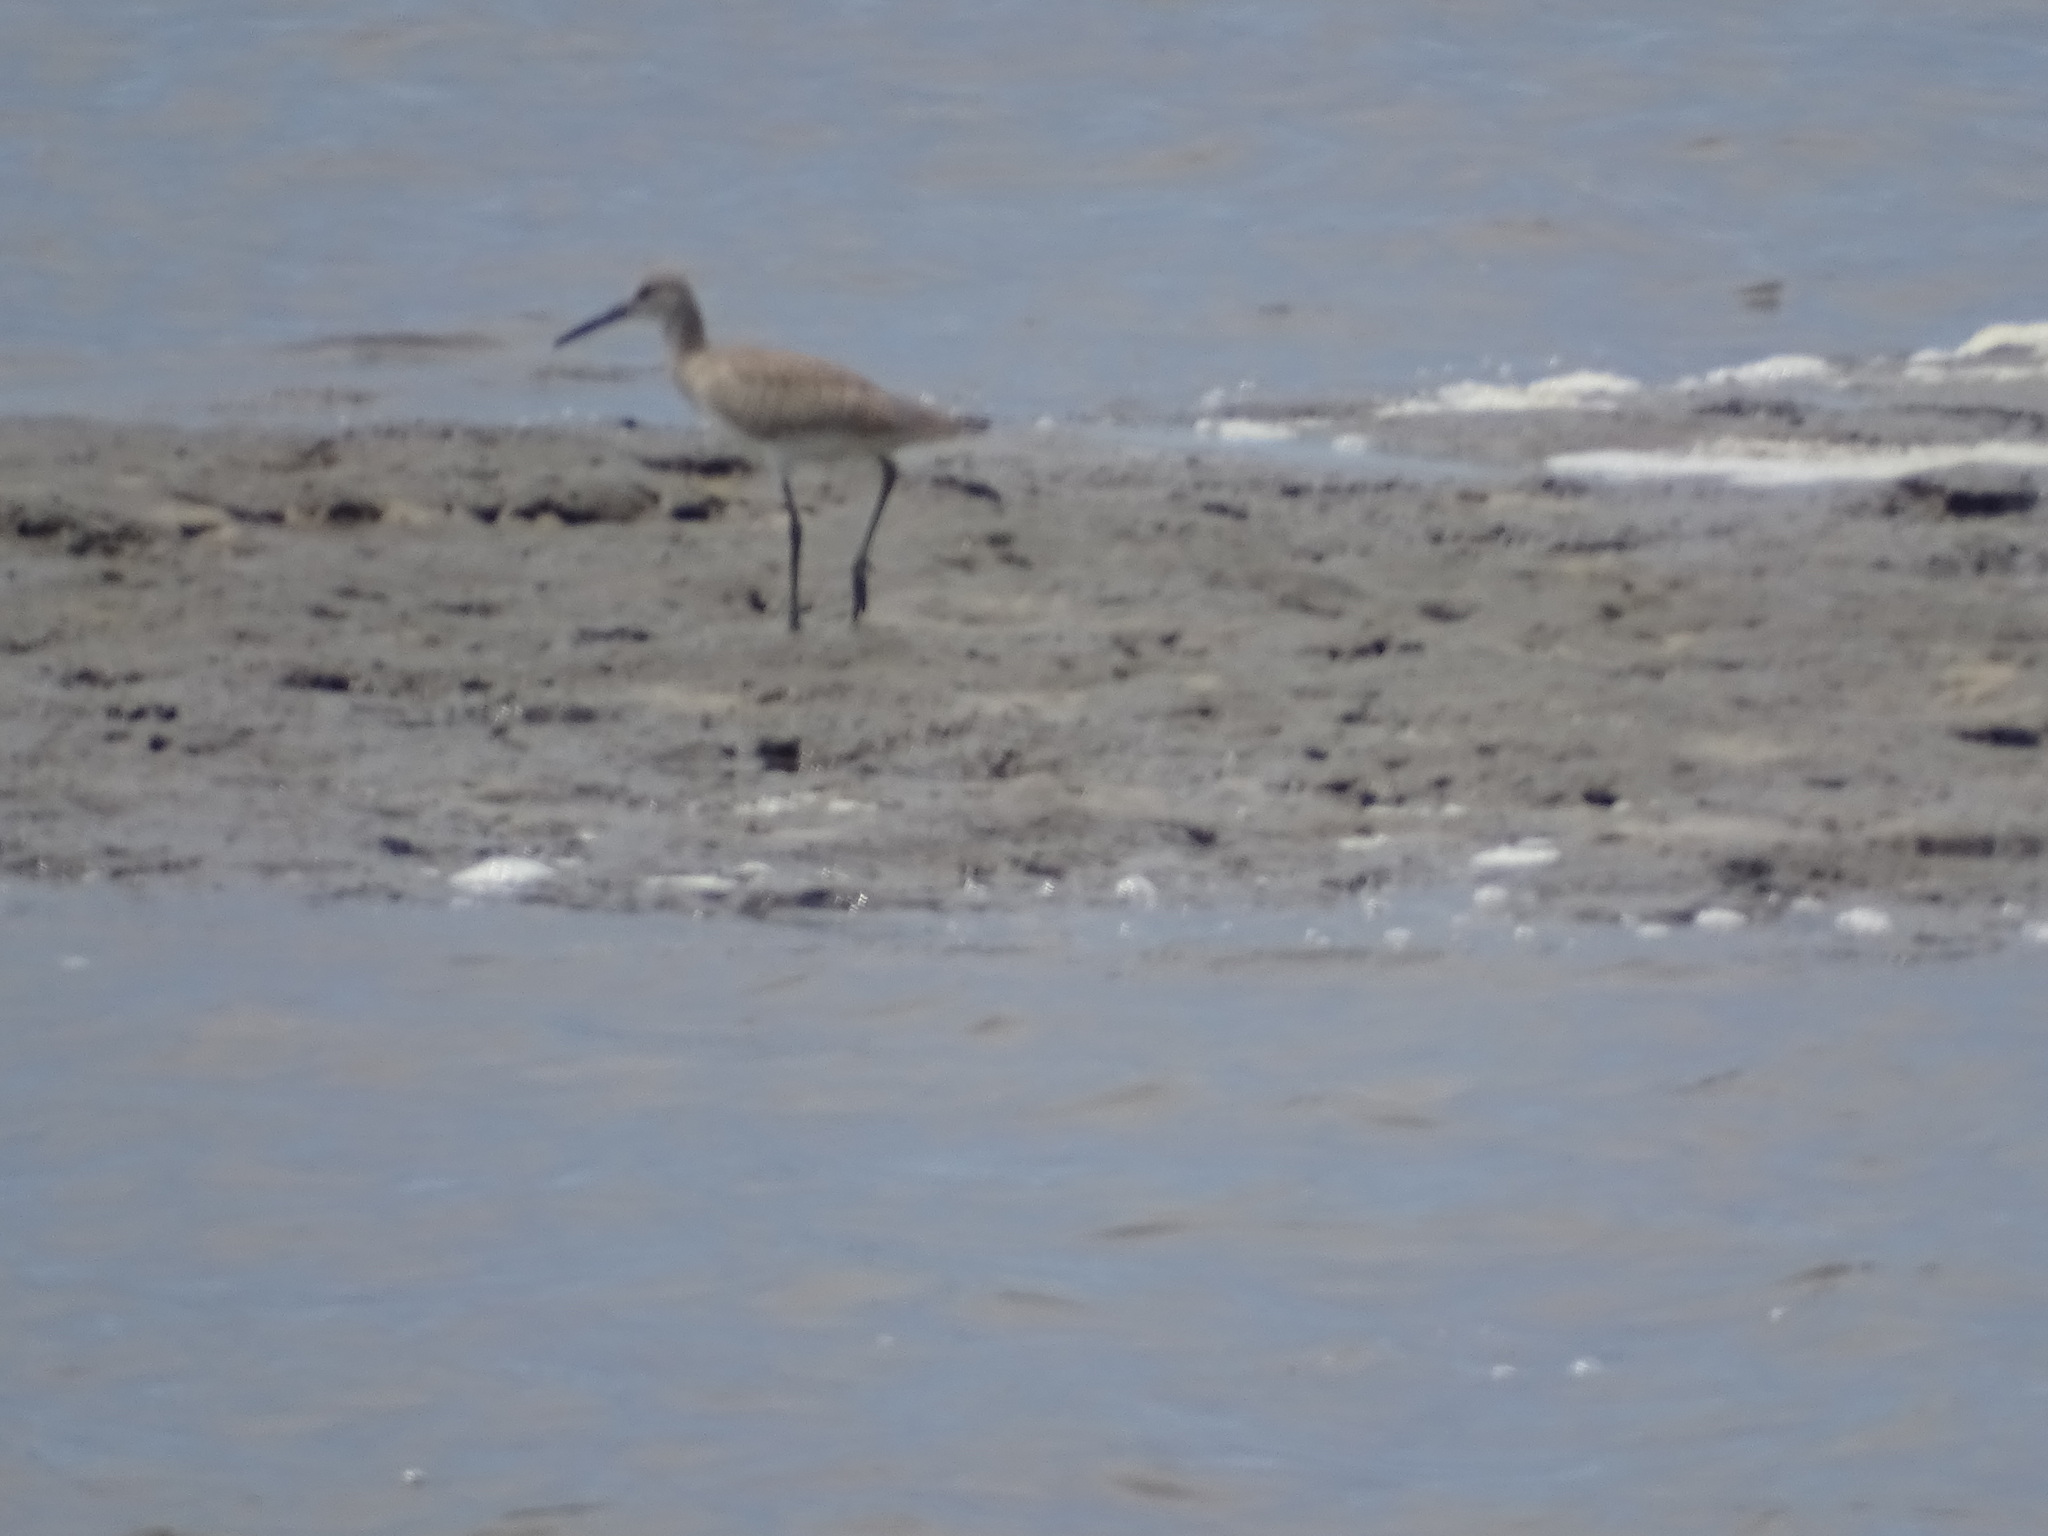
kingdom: Animalia
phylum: Chordata
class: Aves
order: Charadriiformes
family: Scolopacidae
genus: Tringa
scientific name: Tringa semipalmata
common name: Willet
